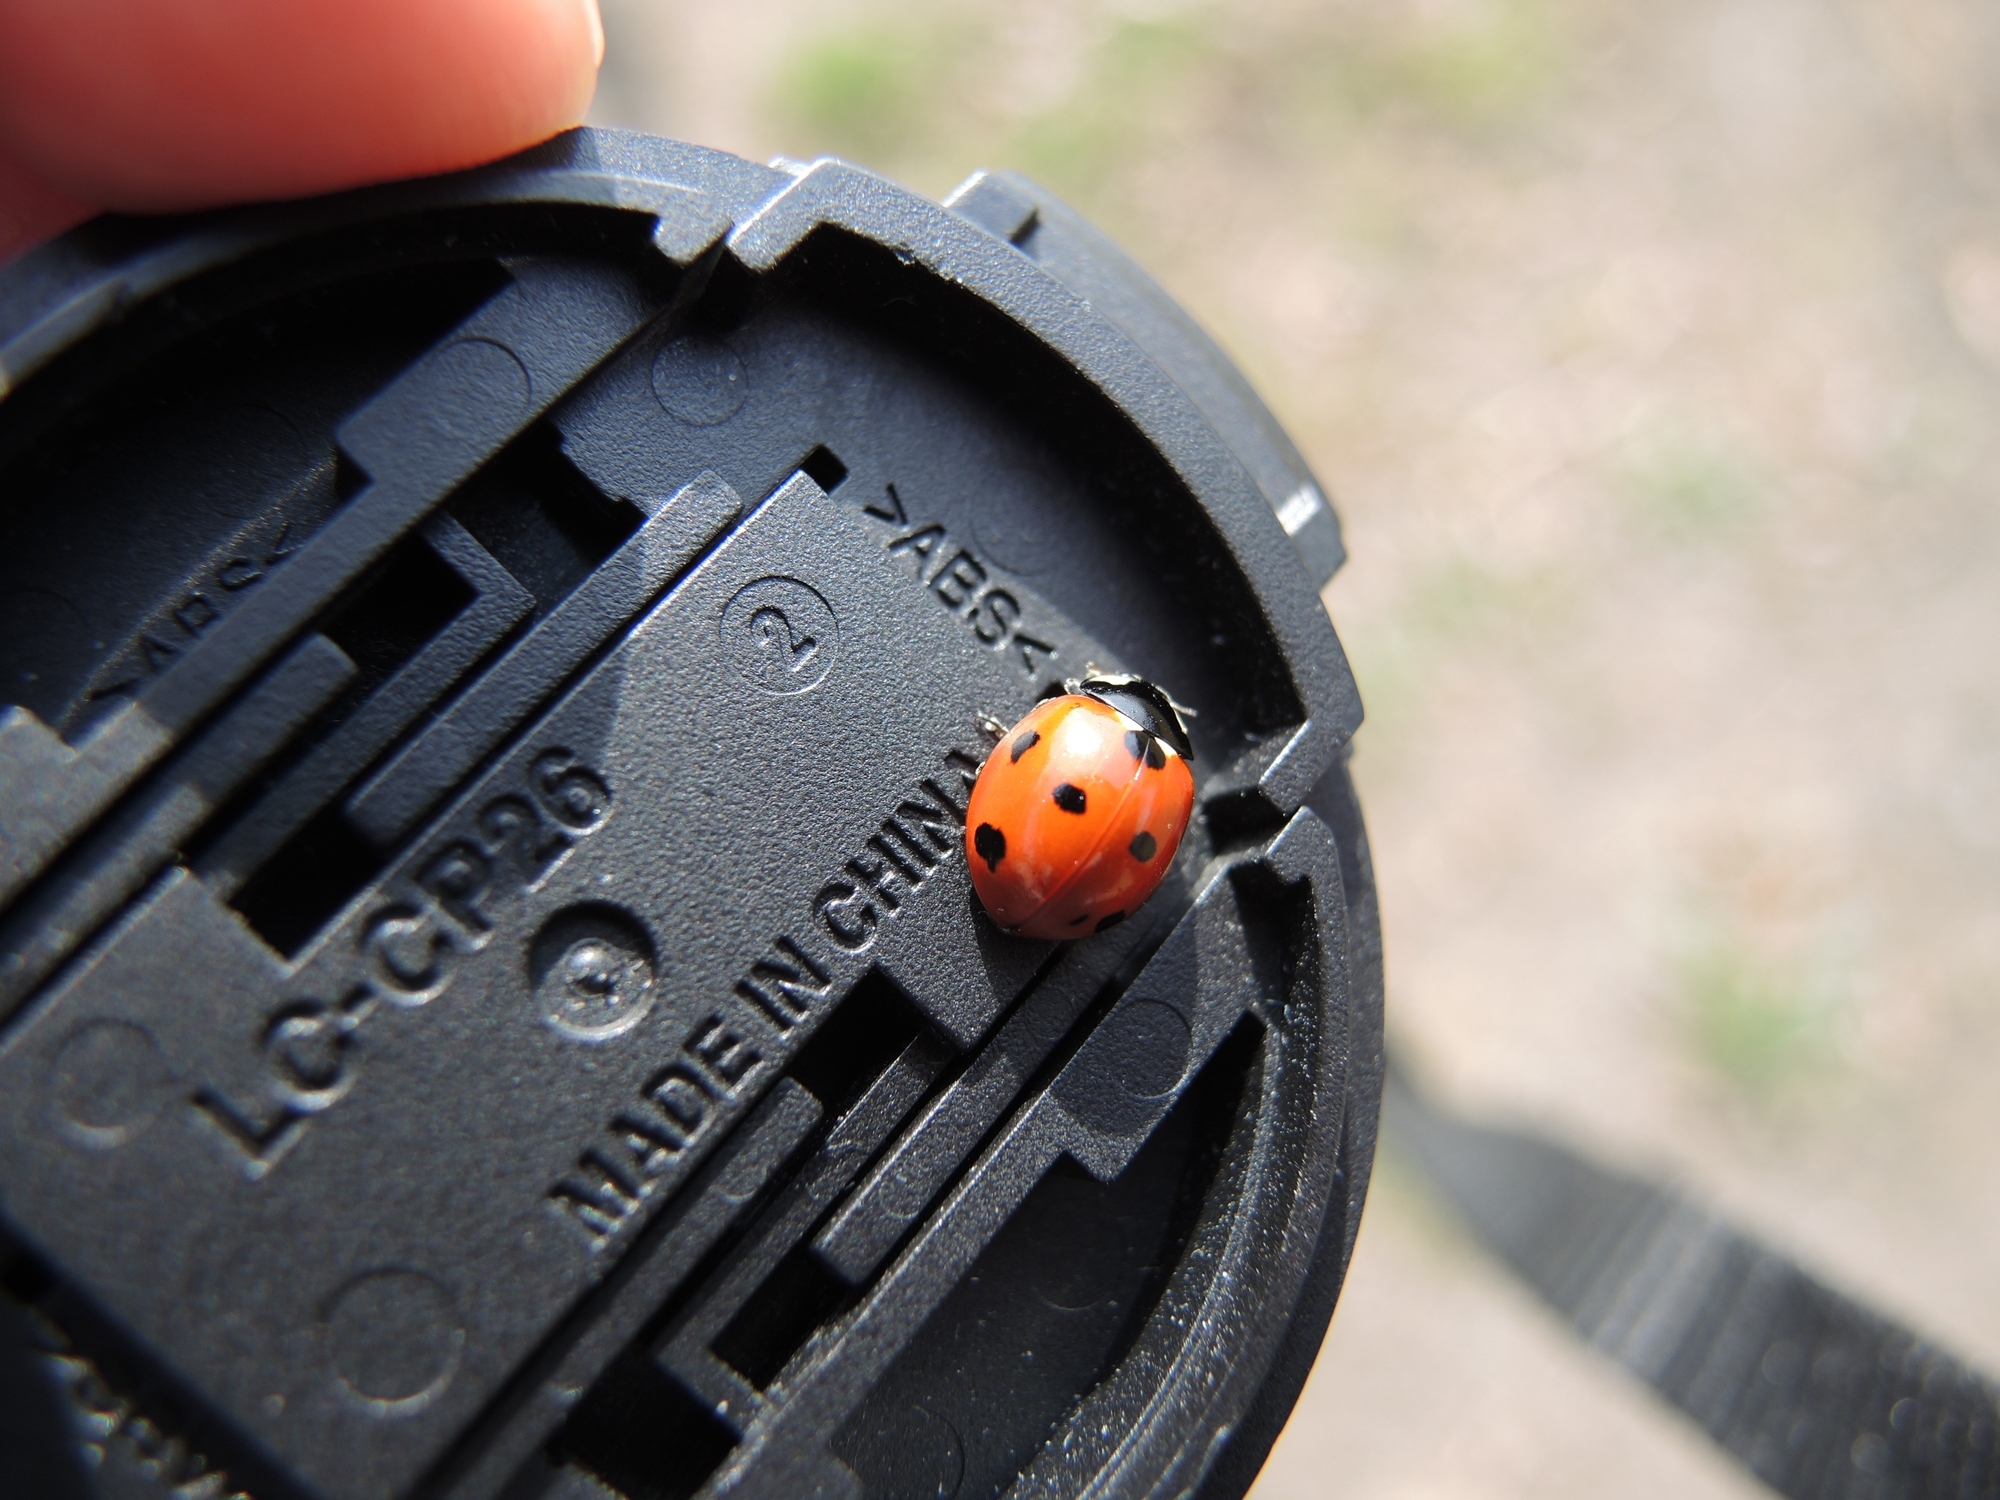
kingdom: Animalia
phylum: Arthropoda
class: Insecta
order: Coleoptera
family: Coccinellidae
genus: Coccinella
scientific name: Coccinella septempunctata
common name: Sevenspotted lady beetle
